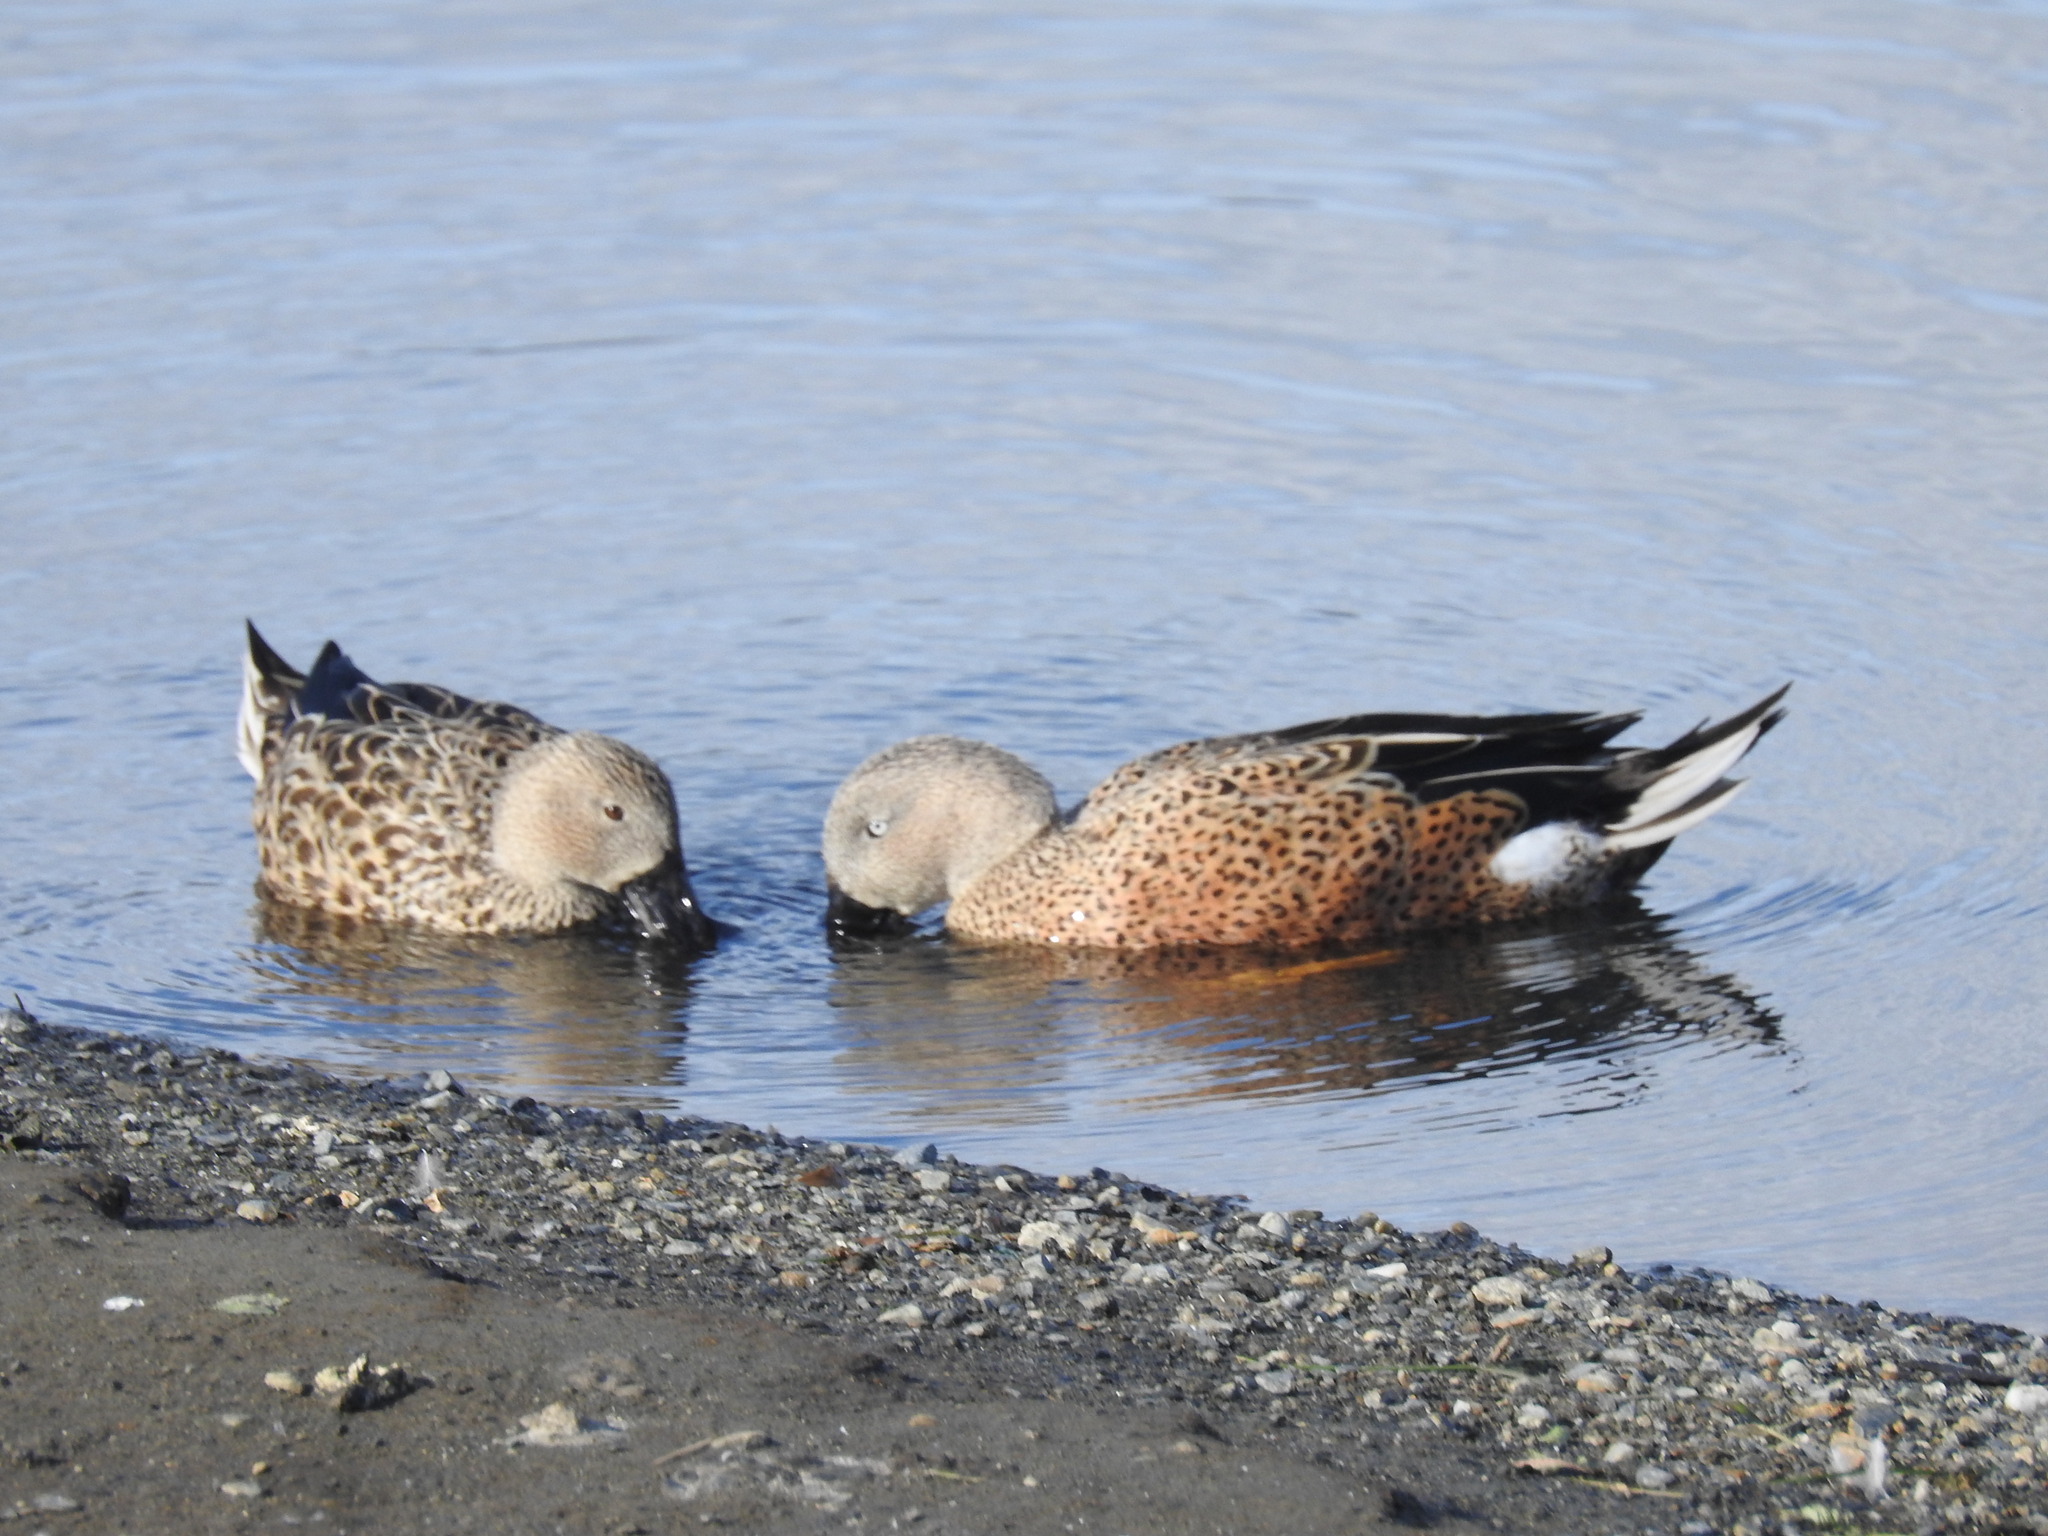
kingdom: Animalia
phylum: Chordata
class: Aves
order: Anseriformes
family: Anatidae
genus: Spatula
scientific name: Spatula platalea
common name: Red shoveler
